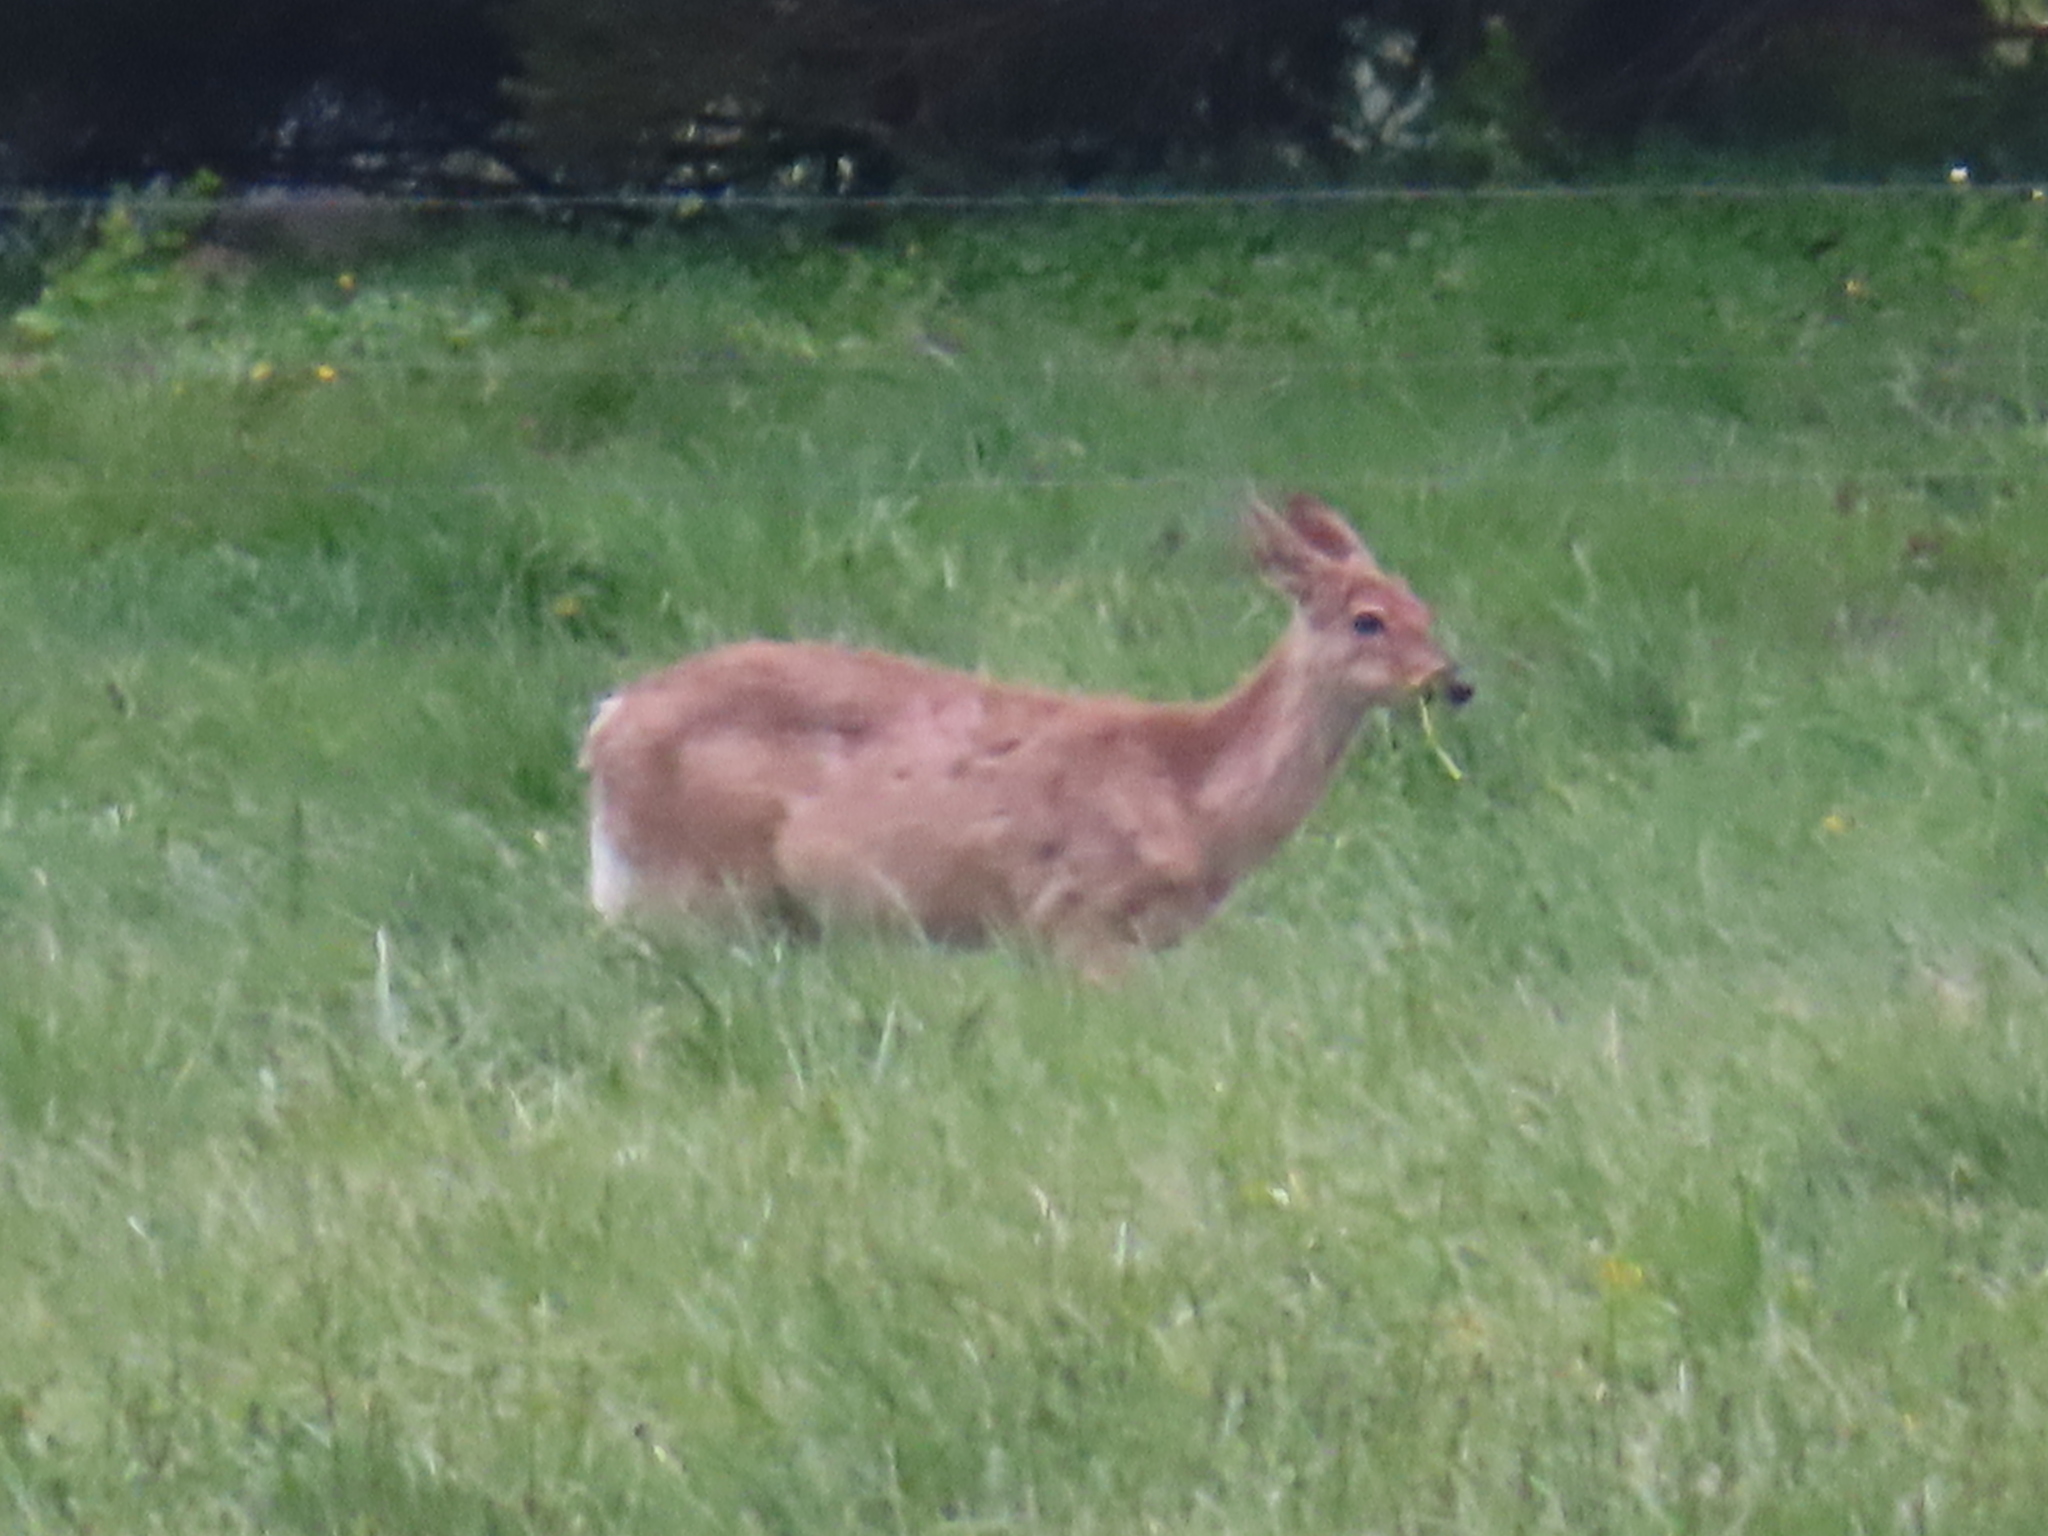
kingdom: Animalia
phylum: Chordata
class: Mammalia
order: Artiodactyla
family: Cervidae
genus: Odocoileus
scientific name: Odocoileus virginianus
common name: White-tailed deer
